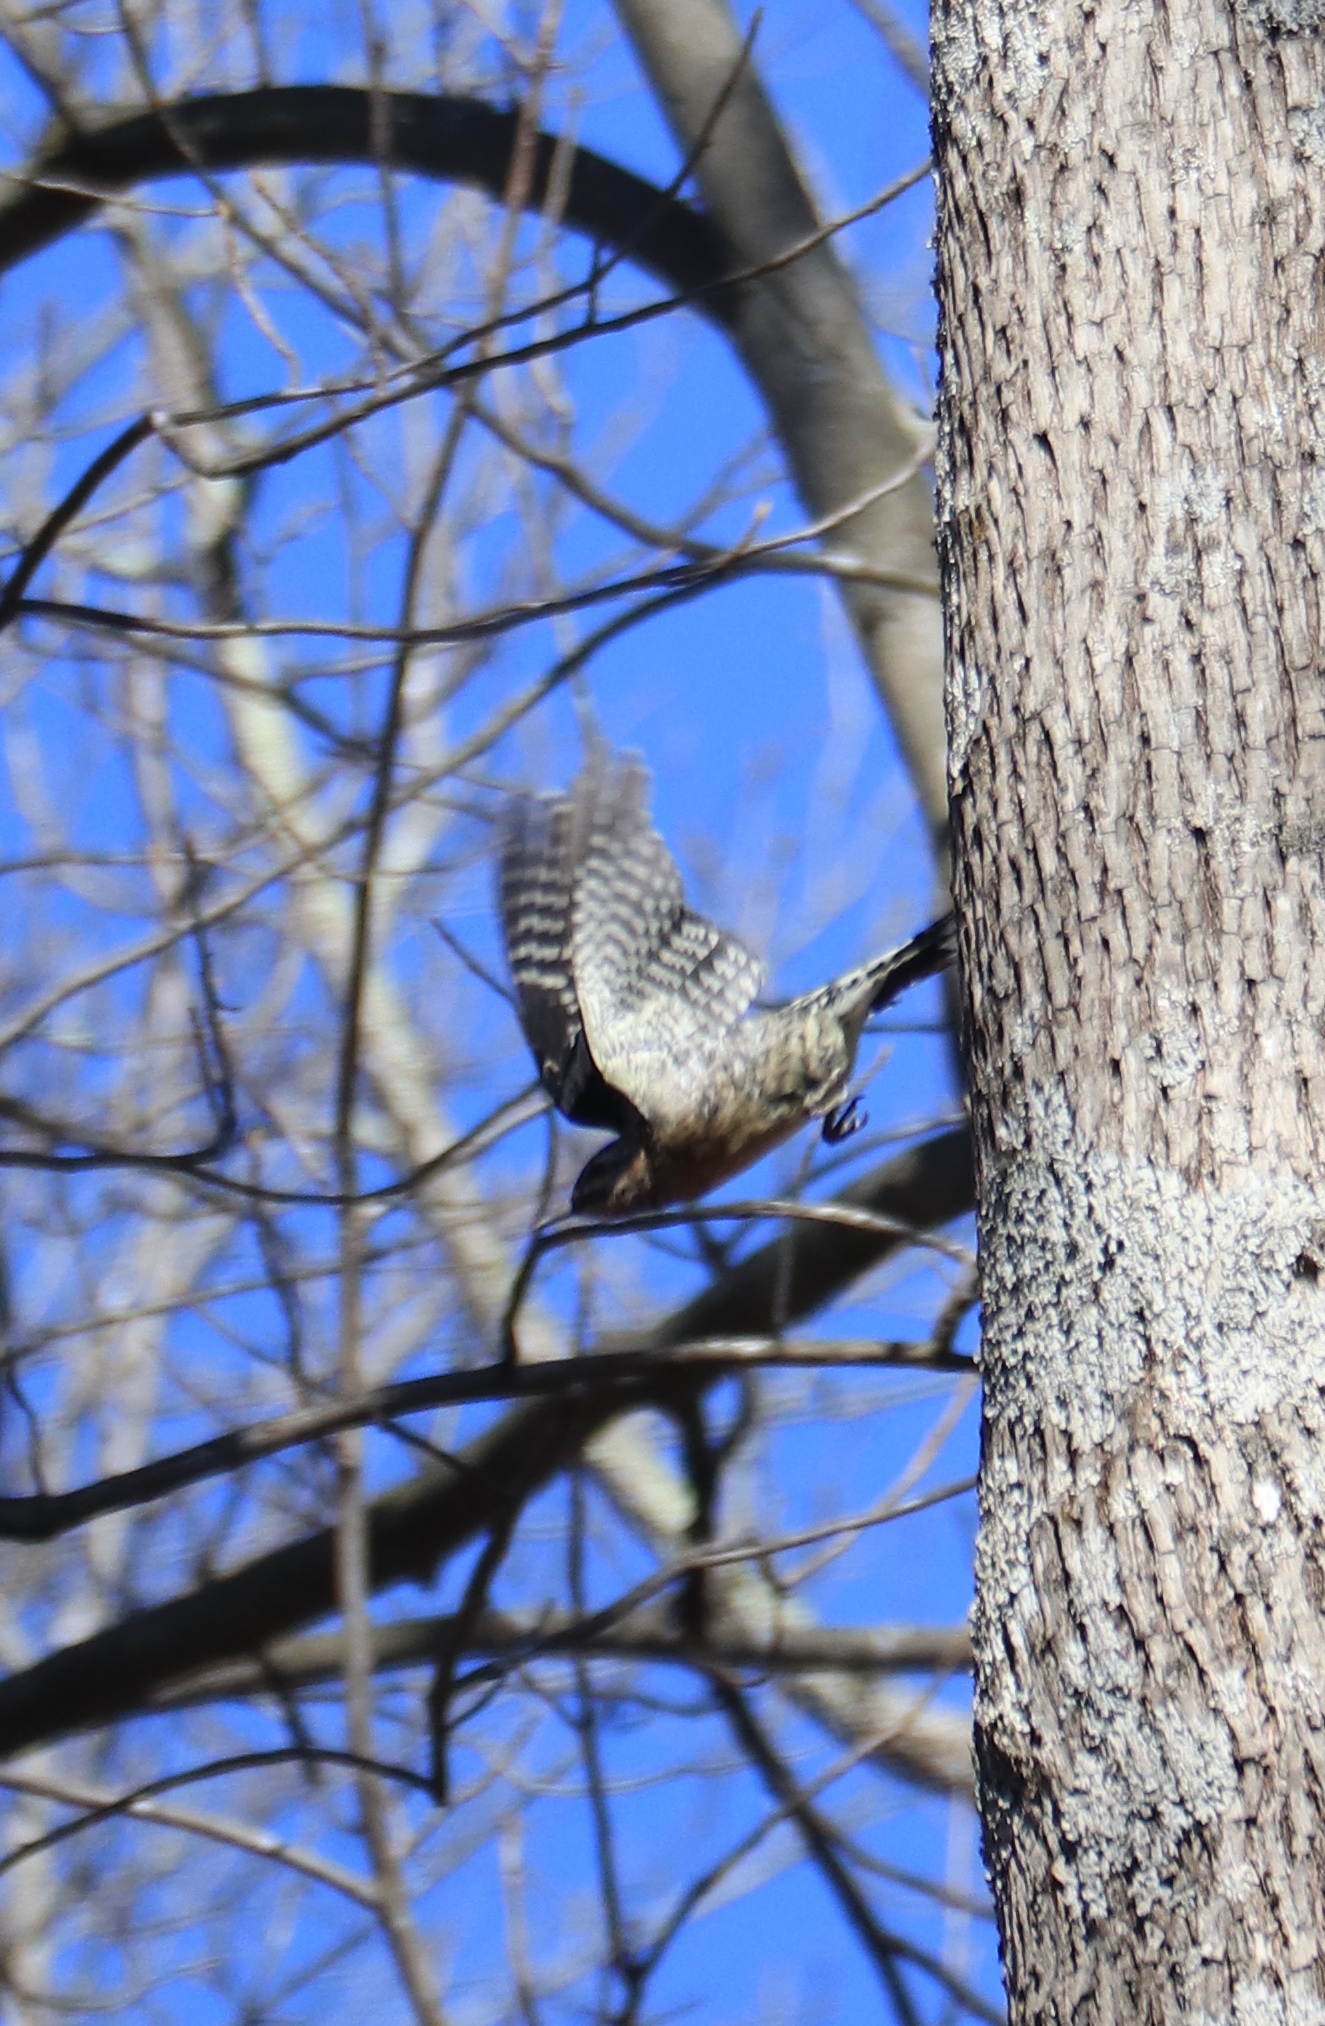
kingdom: Animalia
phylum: Chordata
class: Aves
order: Piciformes
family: Picidae
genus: Sphyrapicus
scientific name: Sphyrapicus varius
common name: Yellow-bellied sapsucker
